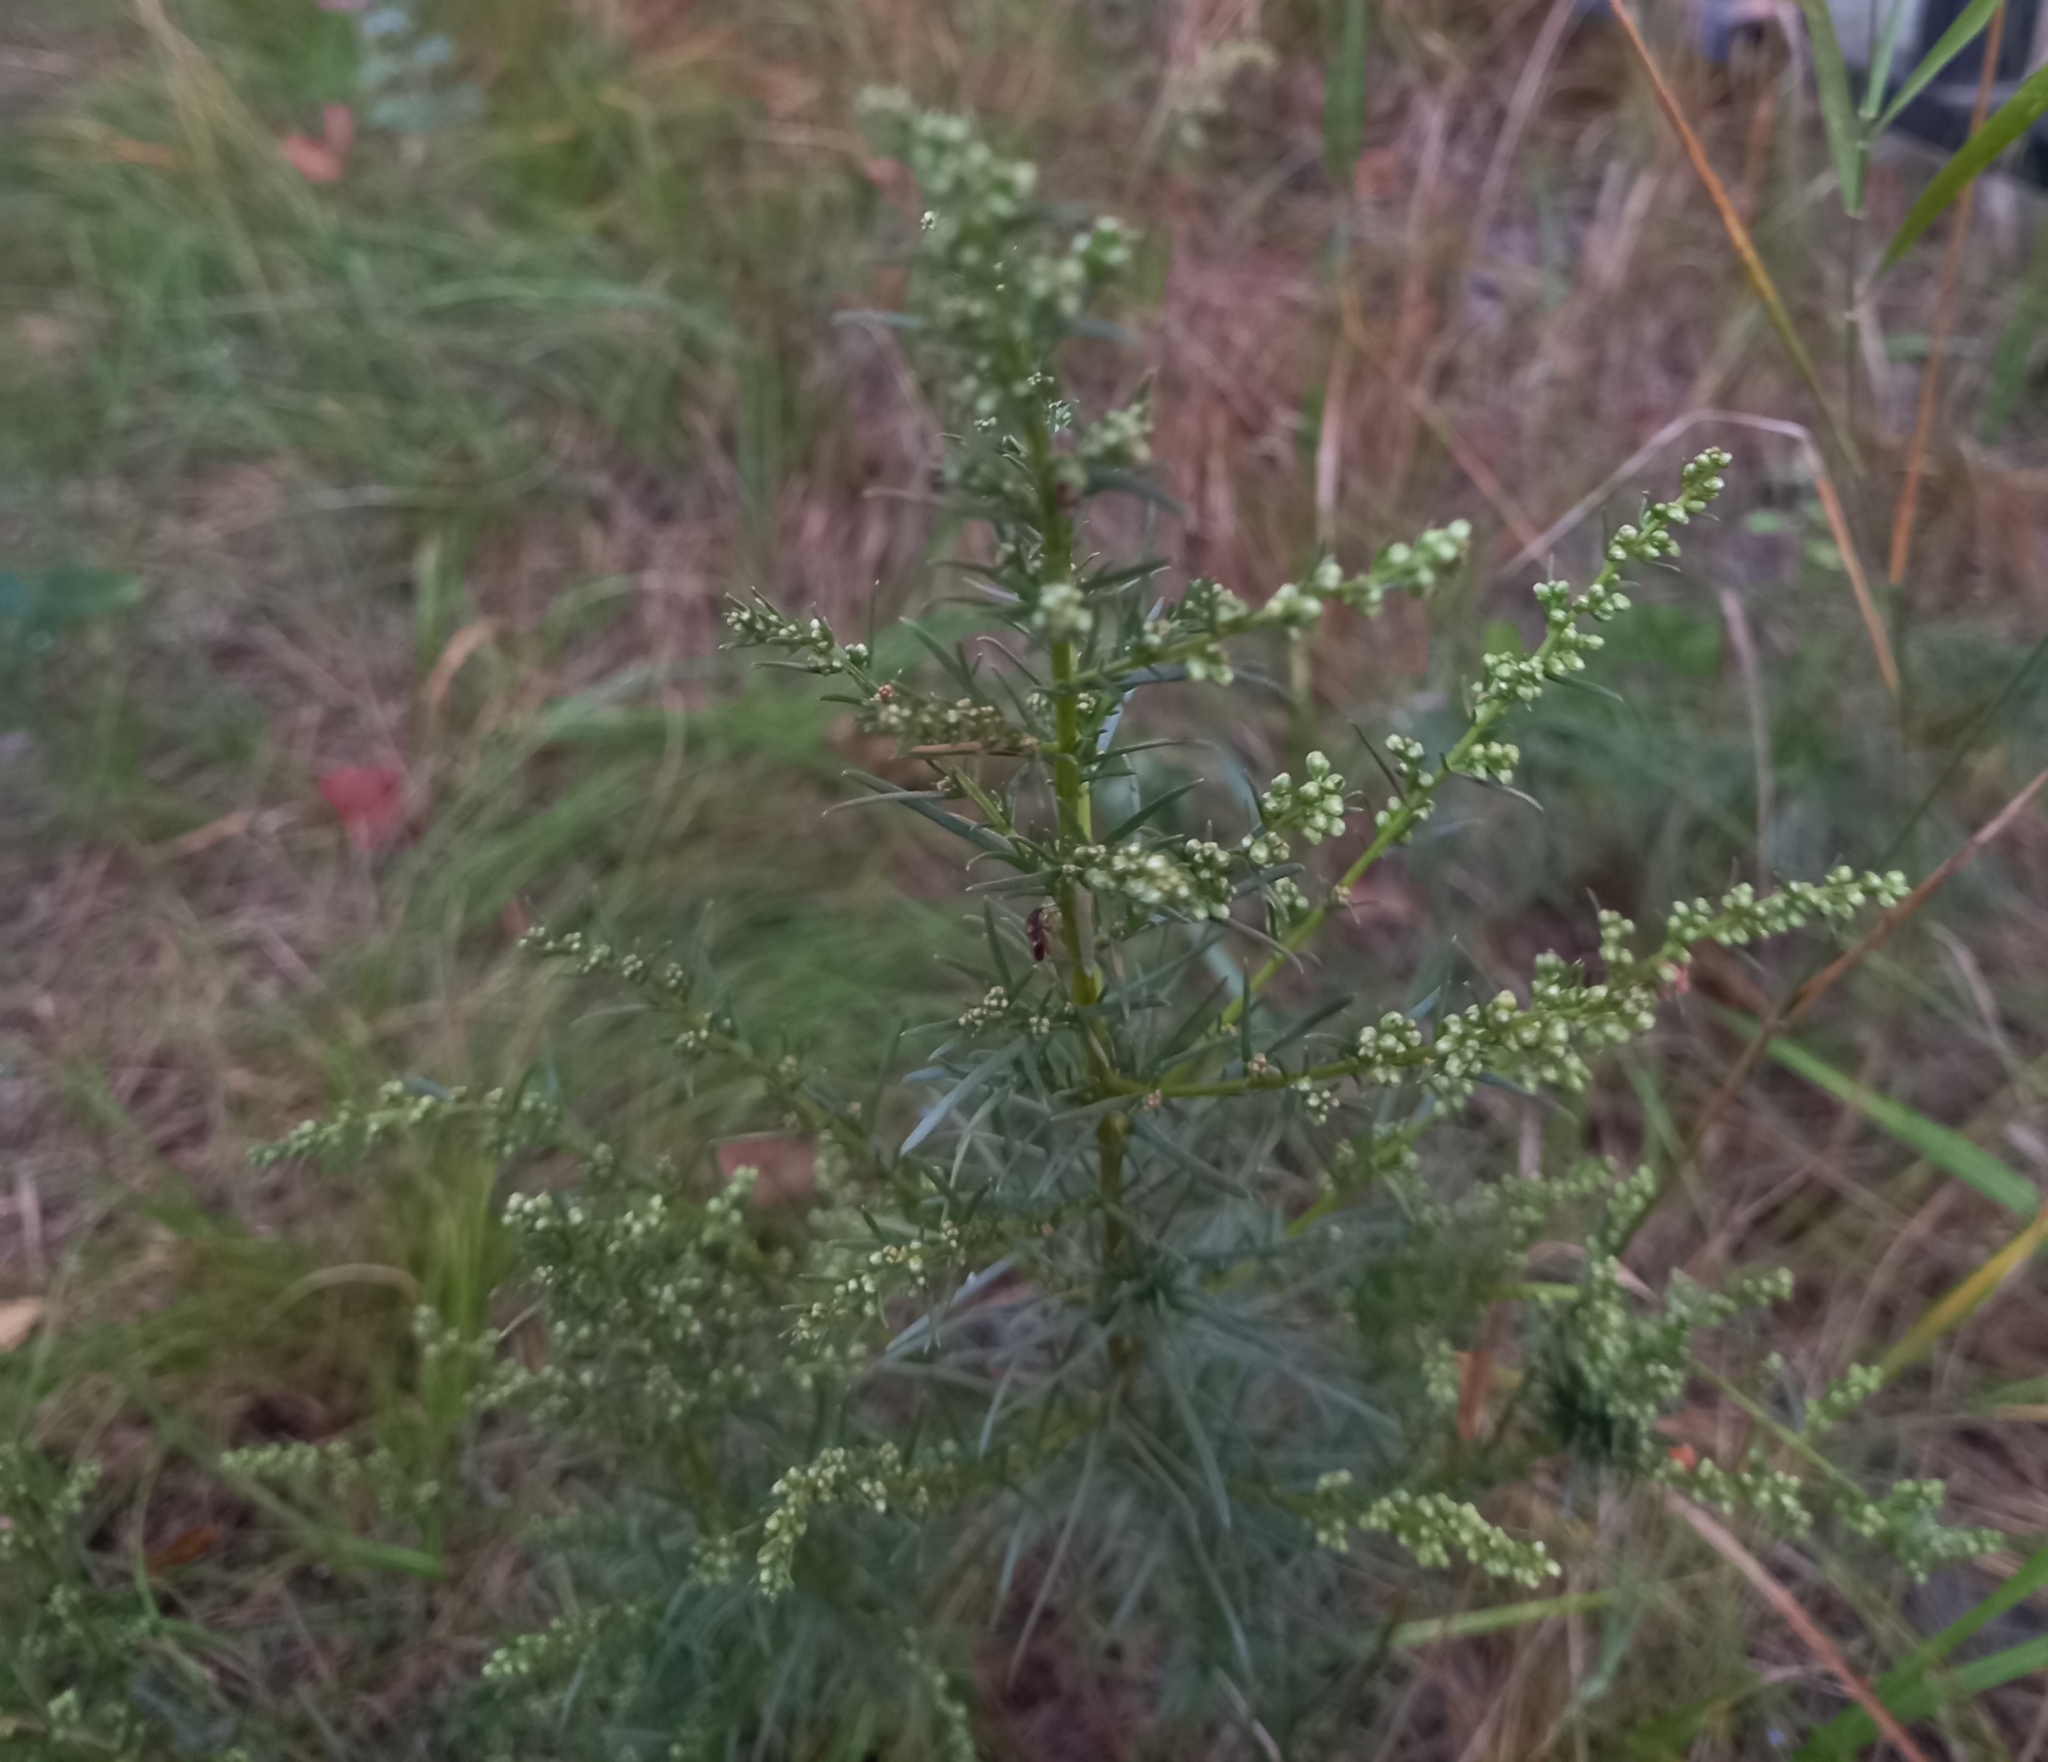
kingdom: Plantae
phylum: Tracheophyta
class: Magnoliopsida
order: Asterales
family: Asteraceae
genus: Artemisia
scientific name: Artemisia campestris
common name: Field wormwood
